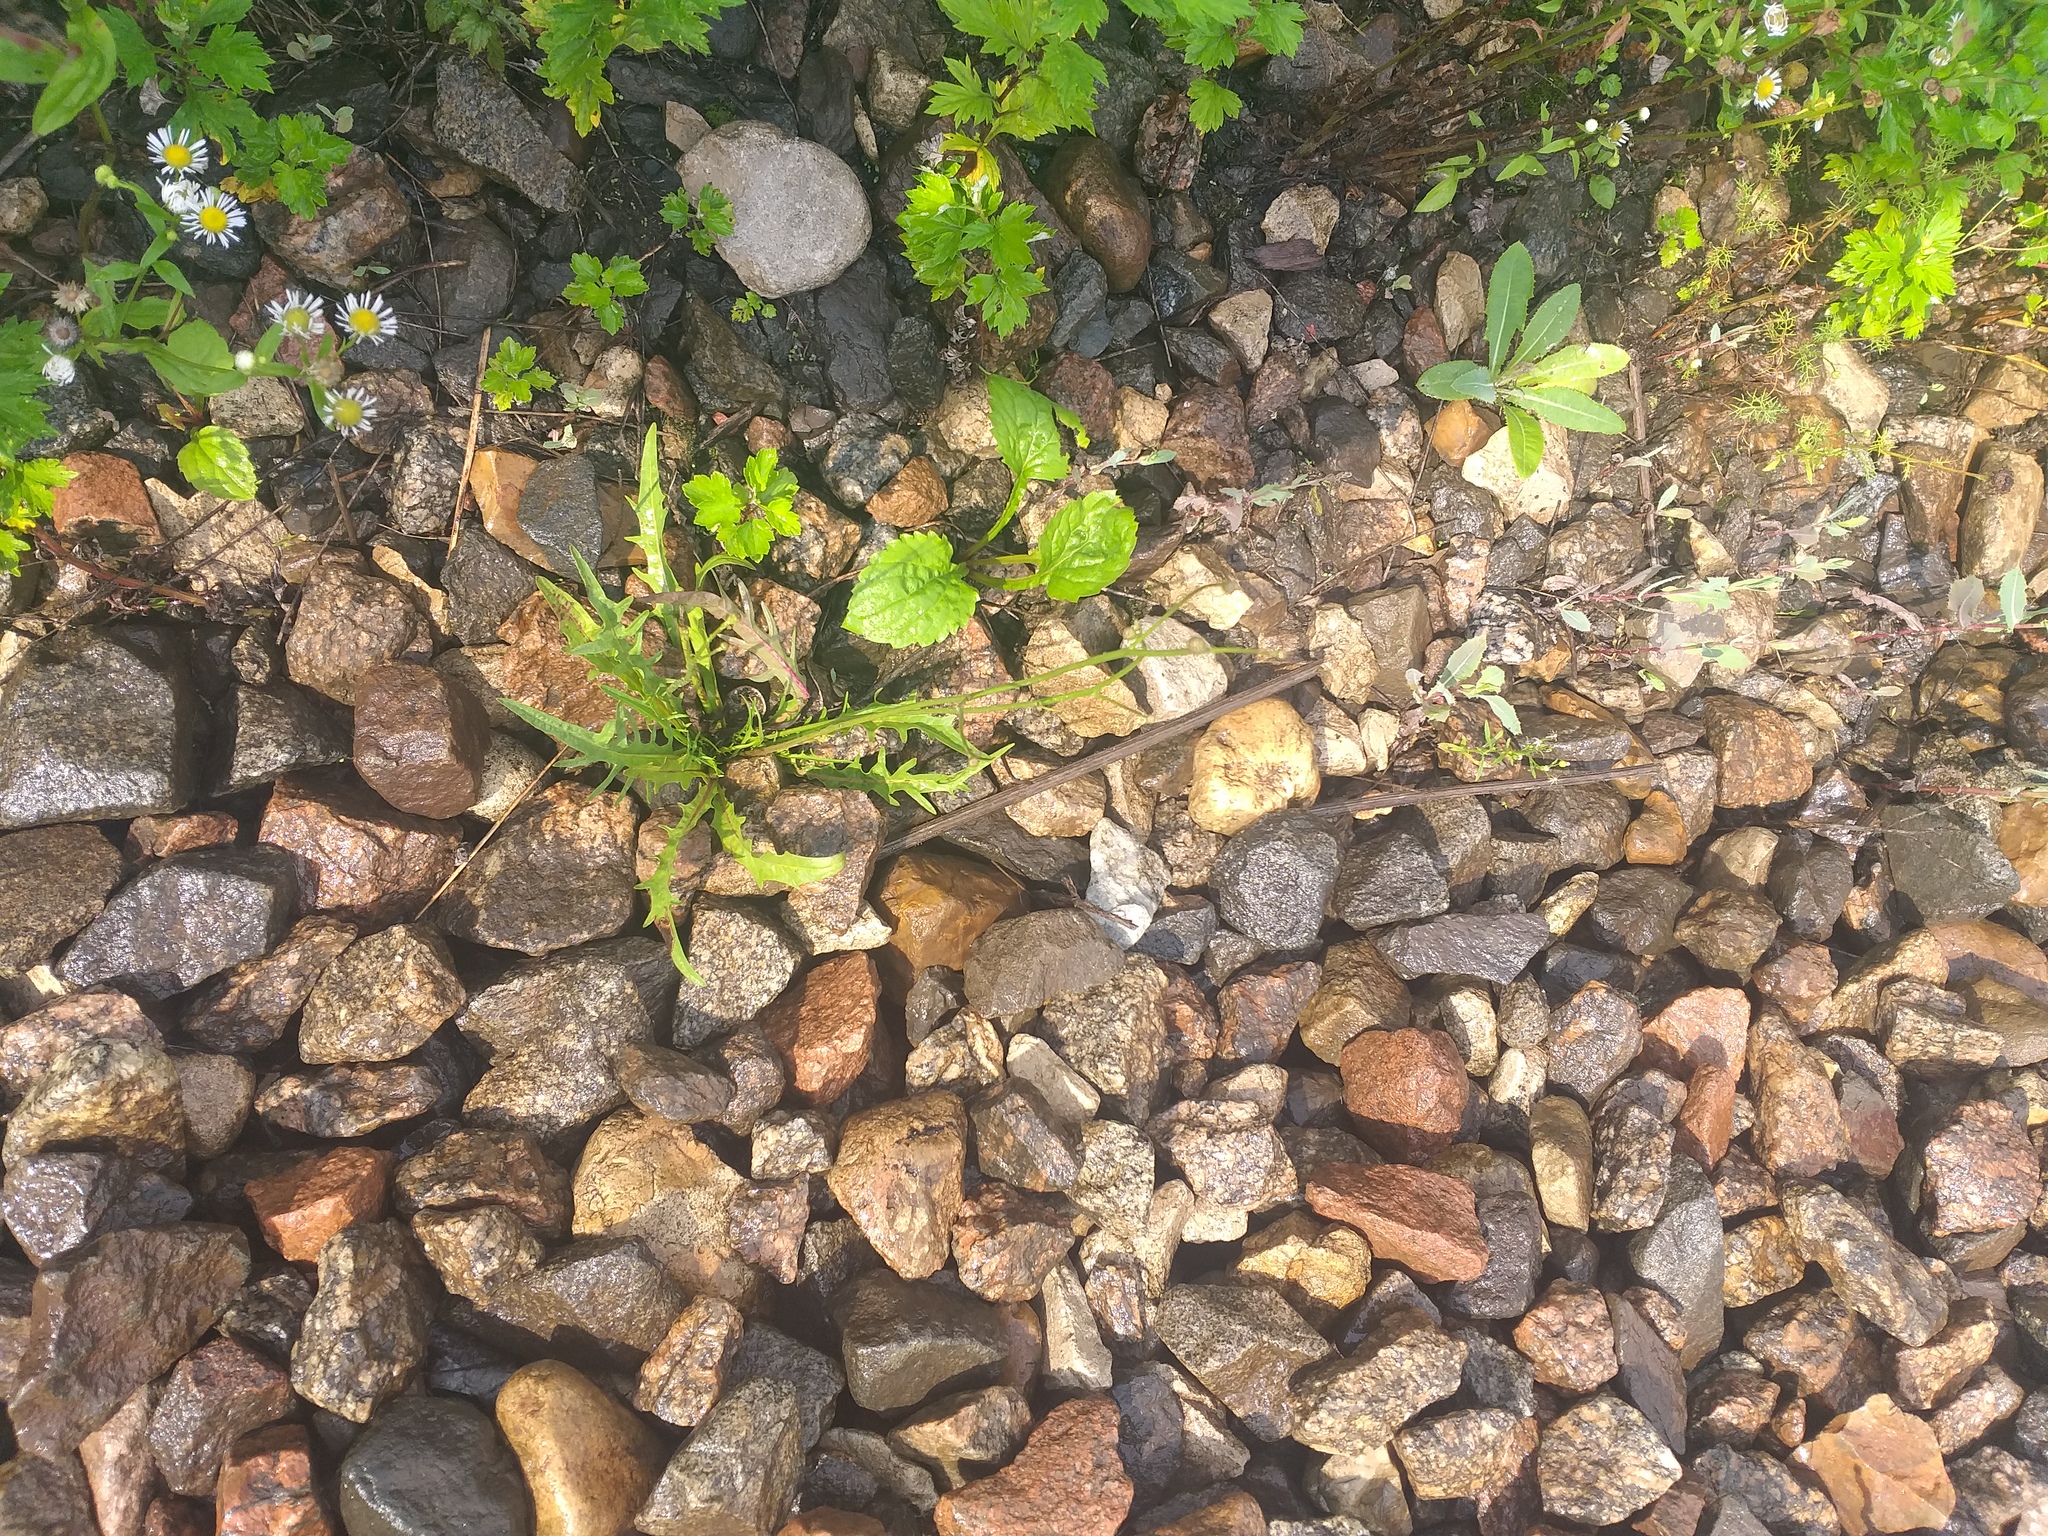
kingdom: Plantae
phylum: Tracheophyta
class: Magnoliopsida
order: Asterales
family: Asteraceae
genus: Scorzoneroides
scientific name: Scorzoneroides autumnalis
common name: Autumn hawkbit
